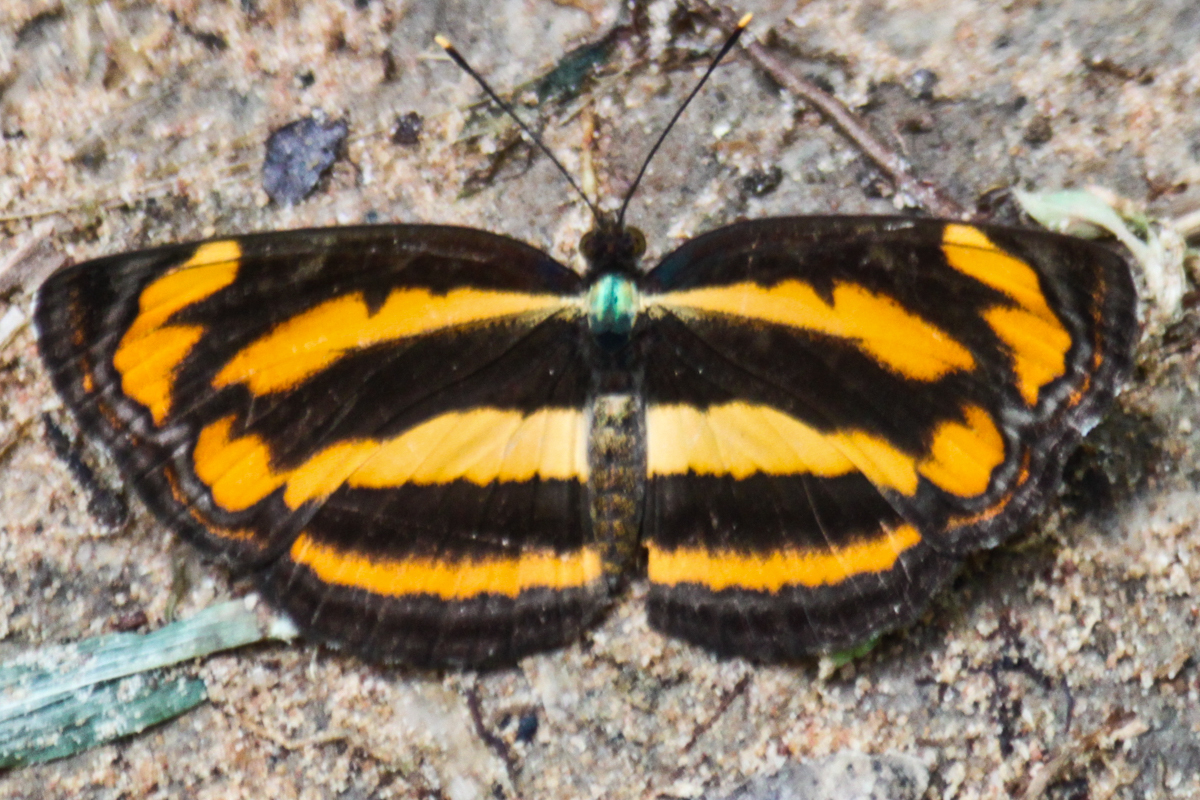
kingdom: Animalia
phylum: Arthropoda
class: Insecta
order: Lepidoptera
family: Nymphalidae
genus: Pantoporia
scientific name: Pantoporia hordonia
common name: Common lascar
